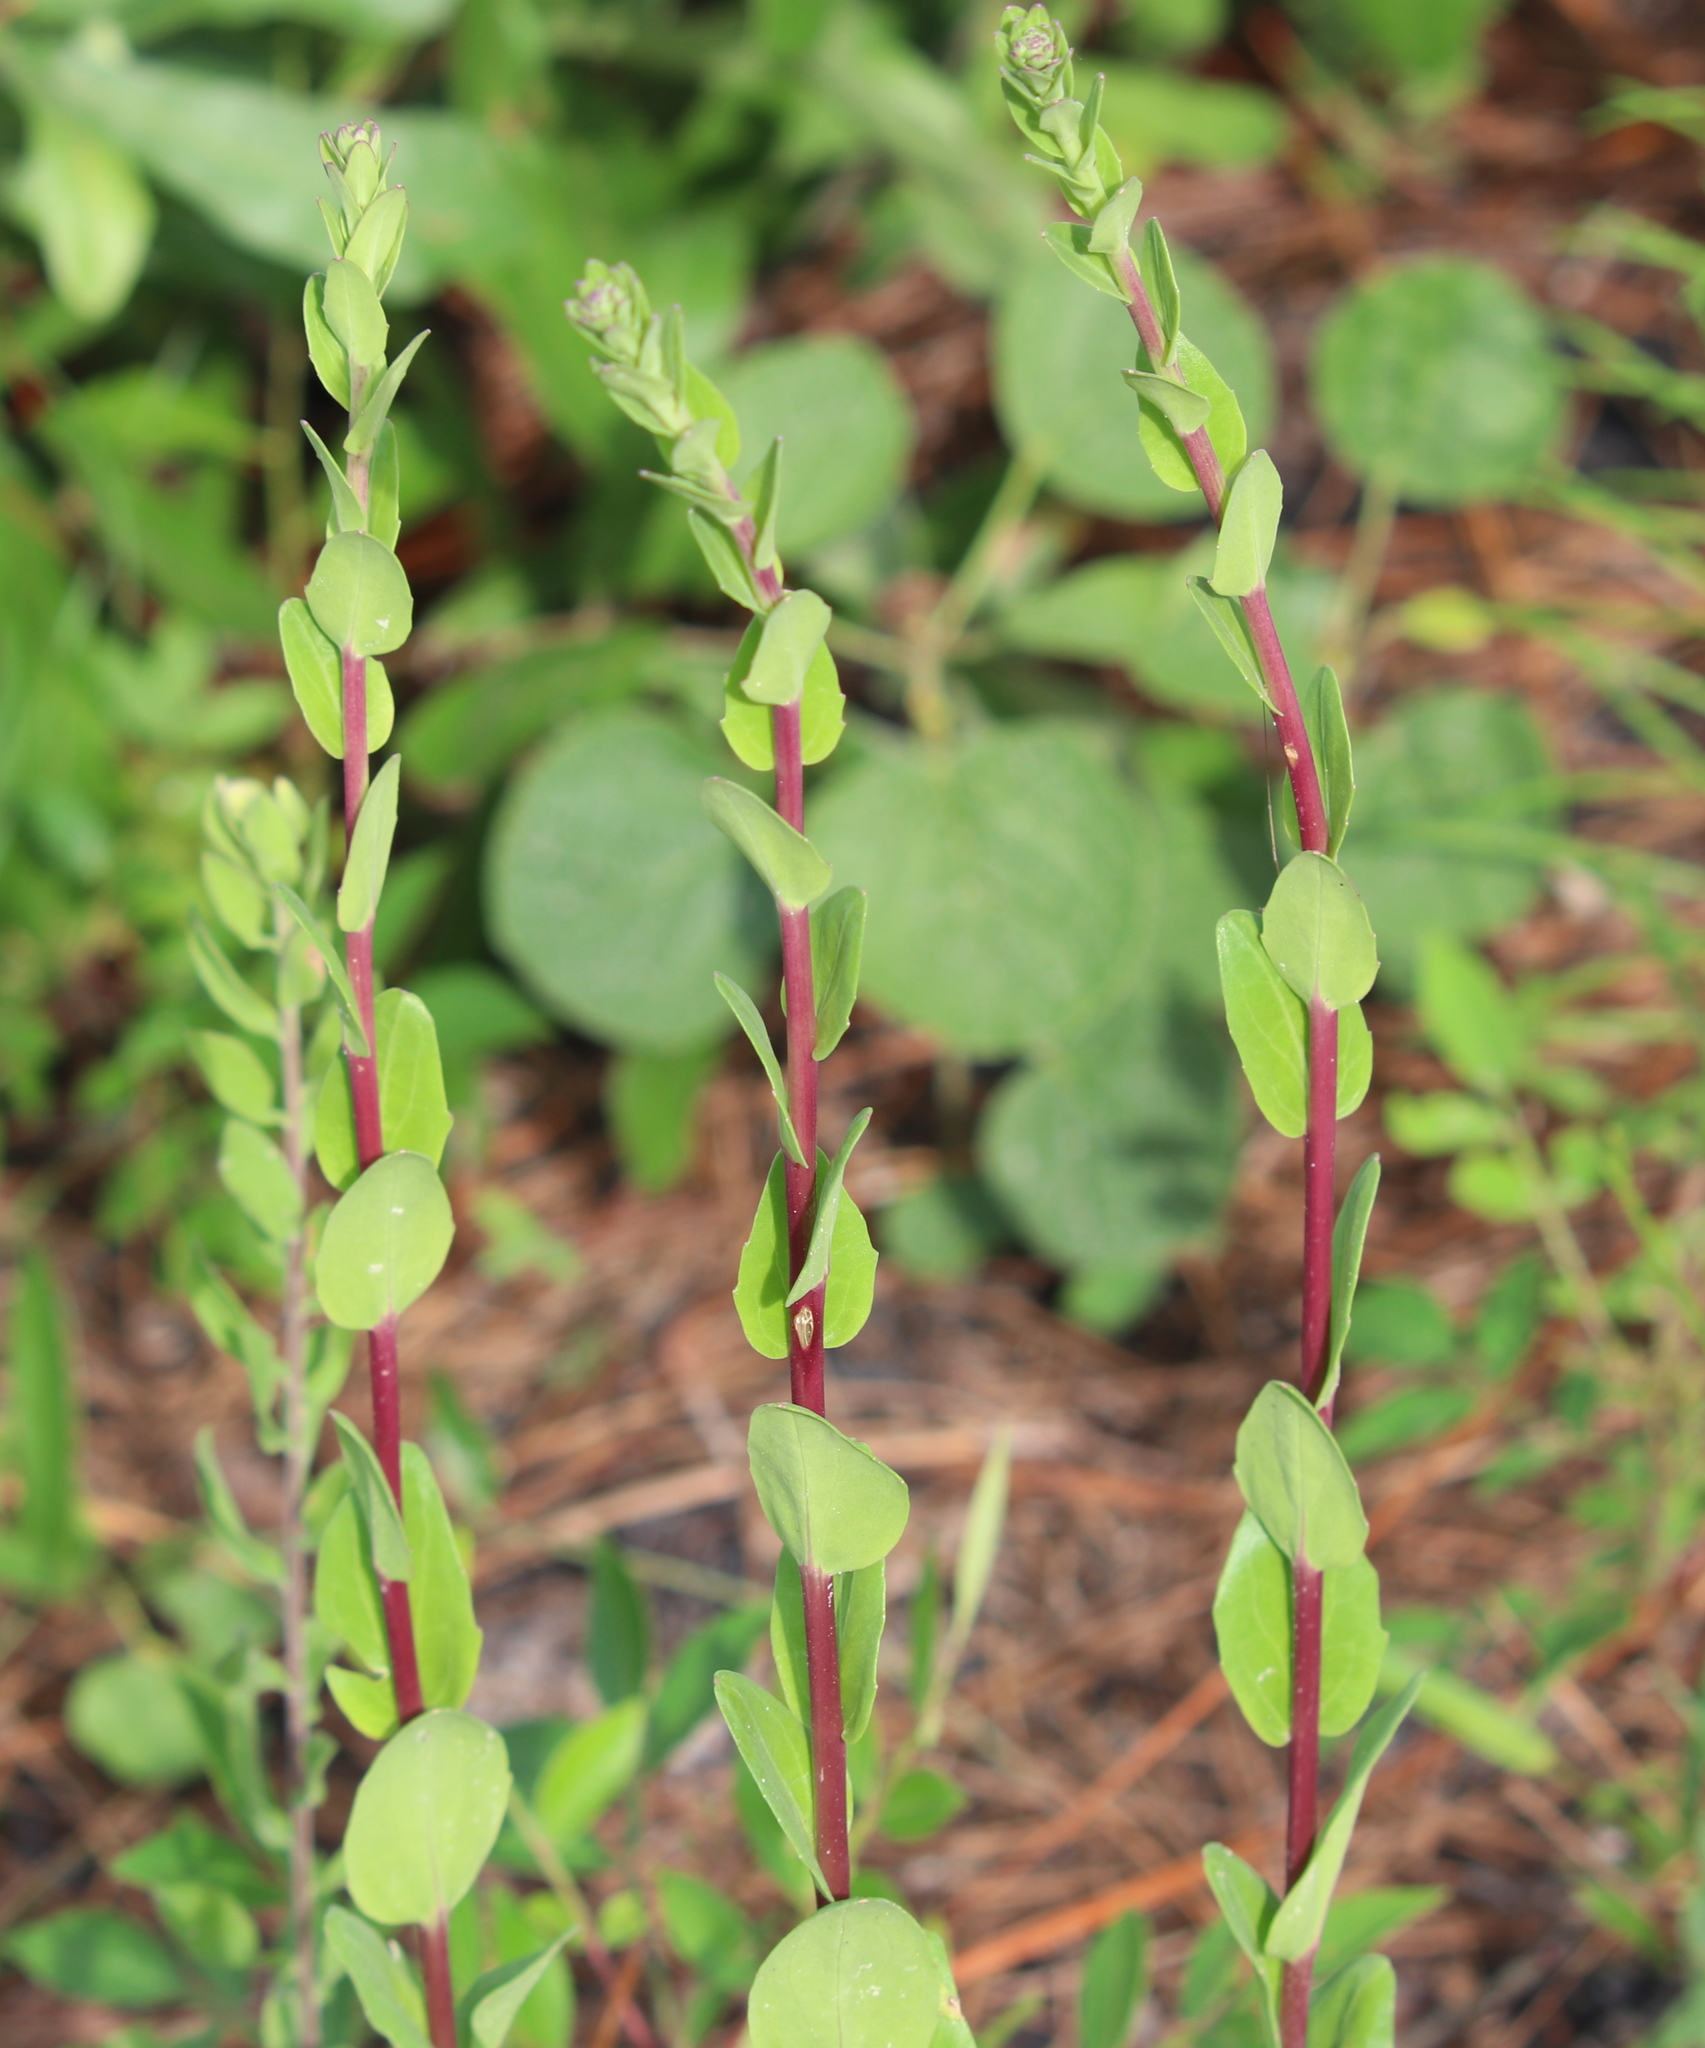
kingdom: Plantae
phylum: Tracheophyta
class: Magnoliopsida
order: Asterales
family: Asteraceae
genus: Carphephorus
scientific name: Carphephorus odoratissimus
